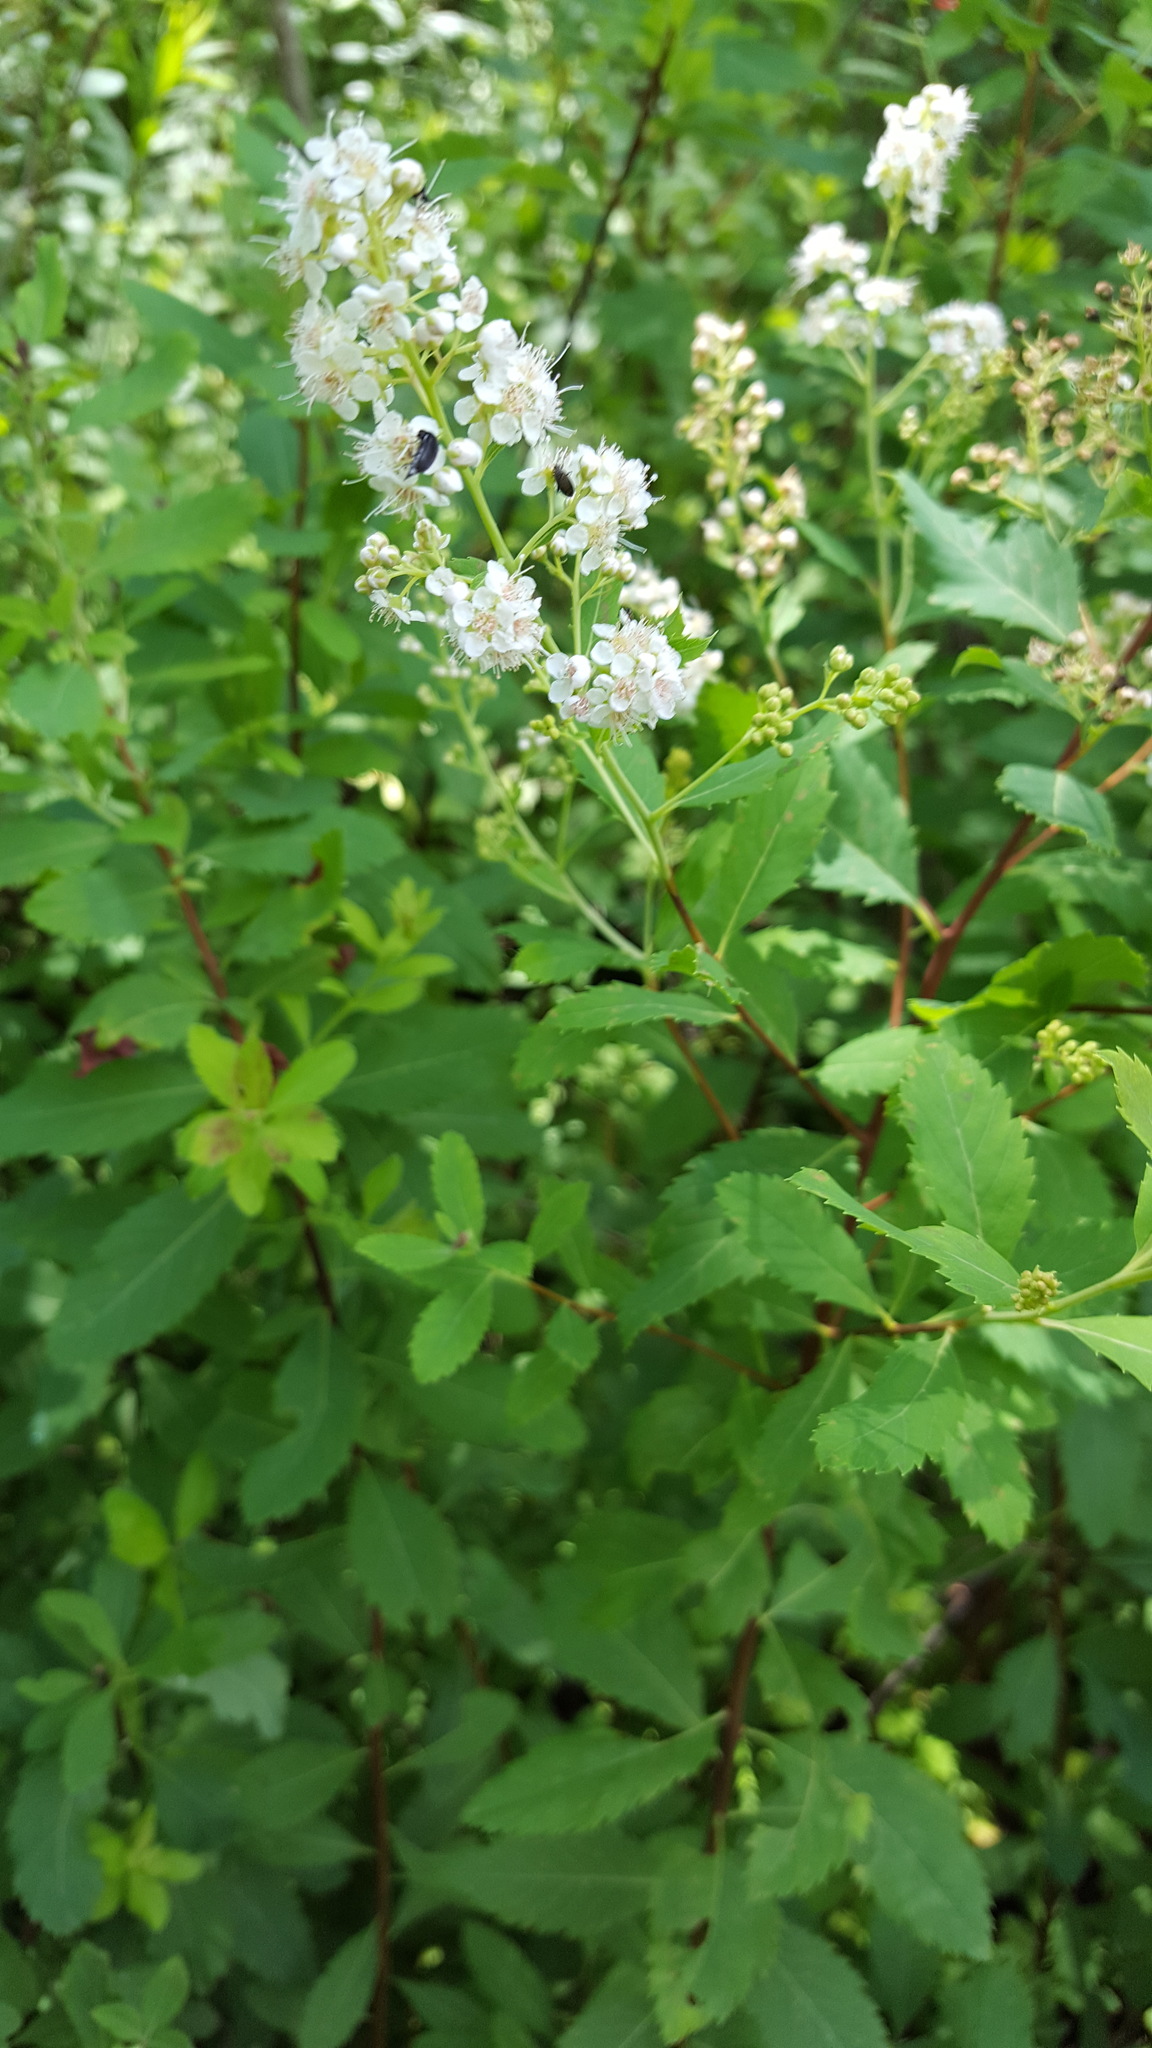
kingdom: Plantae
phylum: Tracheophyta
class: Magnoliopsida
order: Rosales
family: Rosaceae
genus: Spiraea
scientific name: Spiraea alba
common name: Pale bridewort
